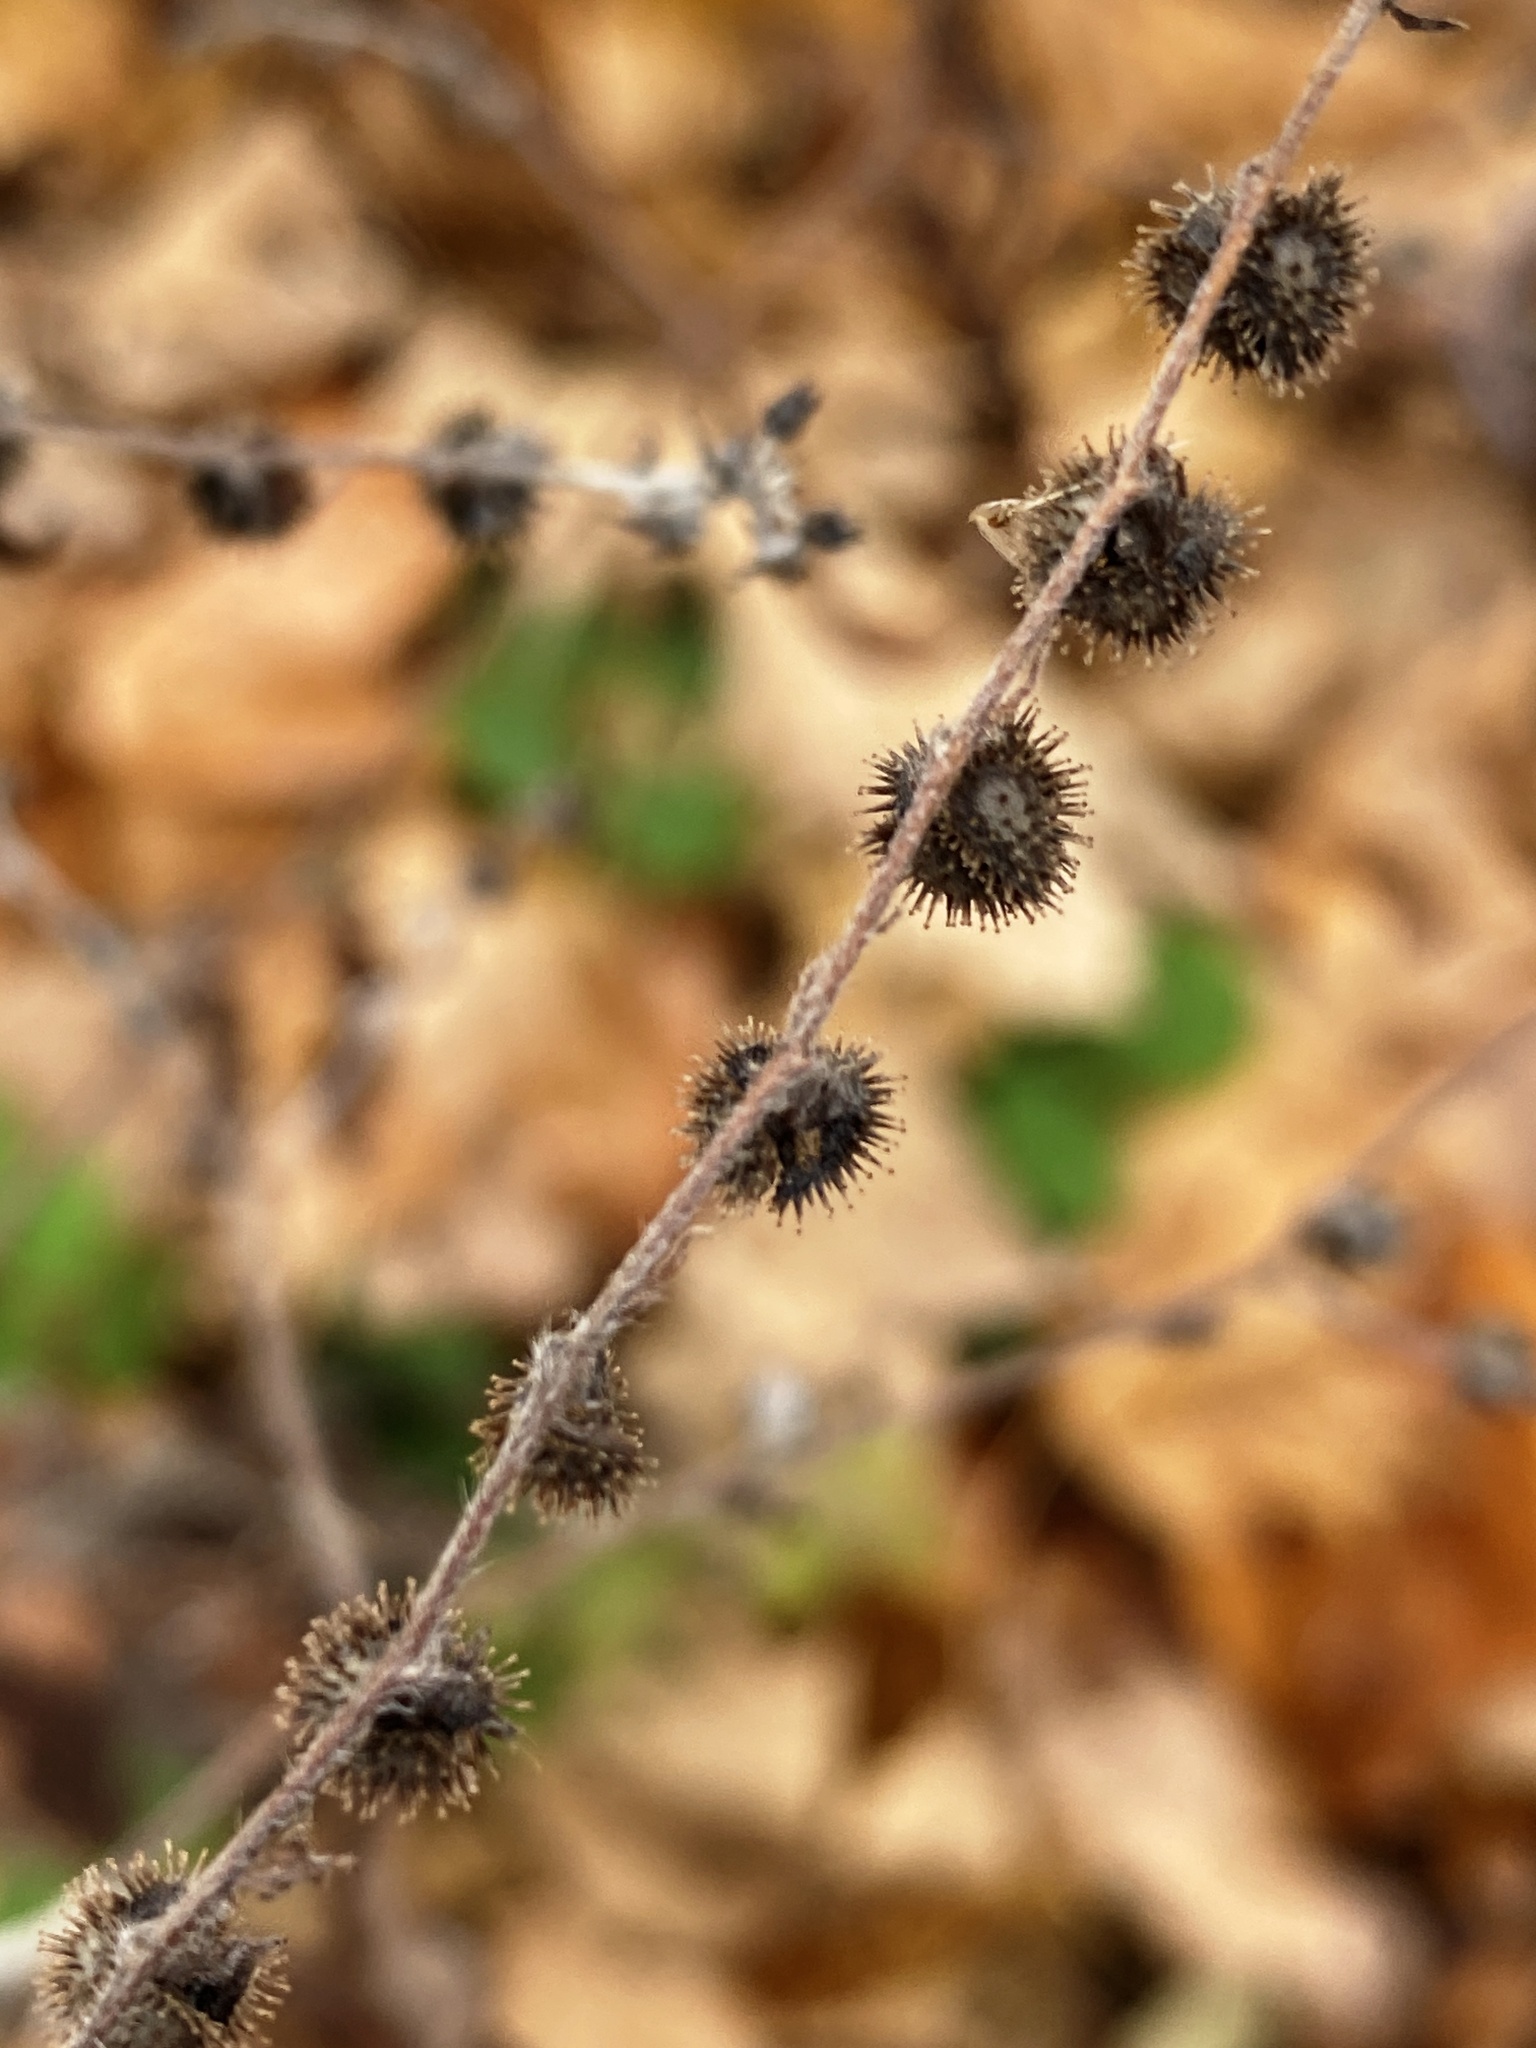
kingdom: Plantae
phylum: Tracheophyta
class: Magnoliopsida
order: Boraginales
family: Boraginaceae
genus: Hackelia
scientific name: Hackelia virginiana
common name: Beggar's-lice
